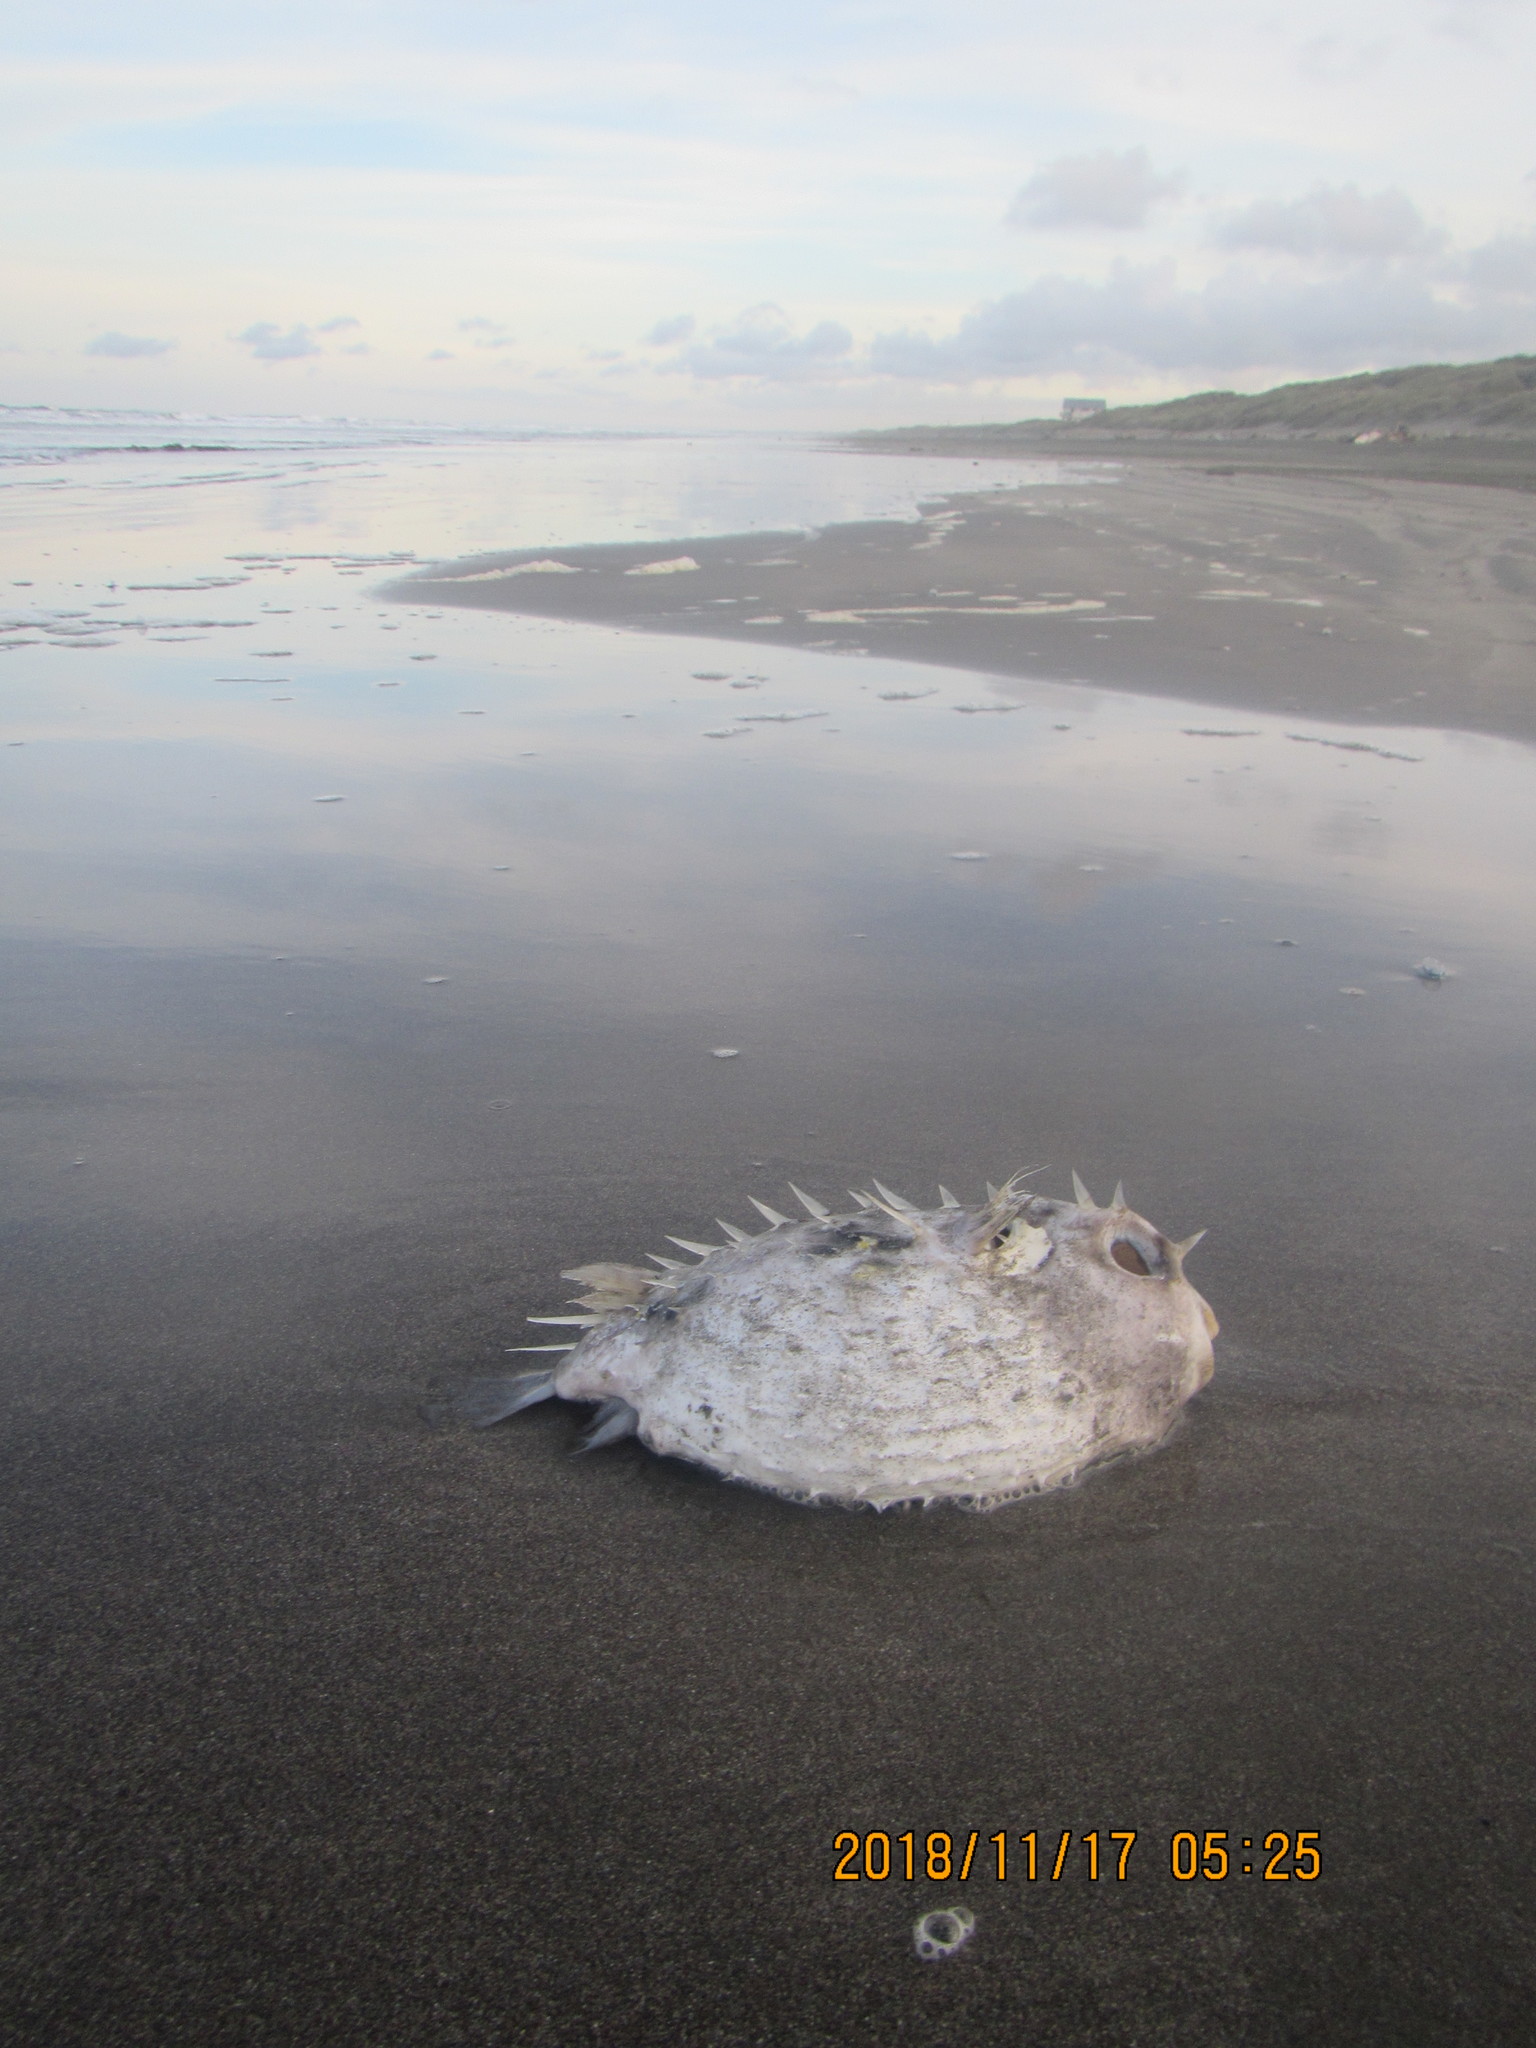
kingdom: Animalia
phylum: Chordata
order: Tetraodontiformes
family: Diodontidae
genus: Allomycterus
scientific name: Allomycterus pilatus
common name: No common name
